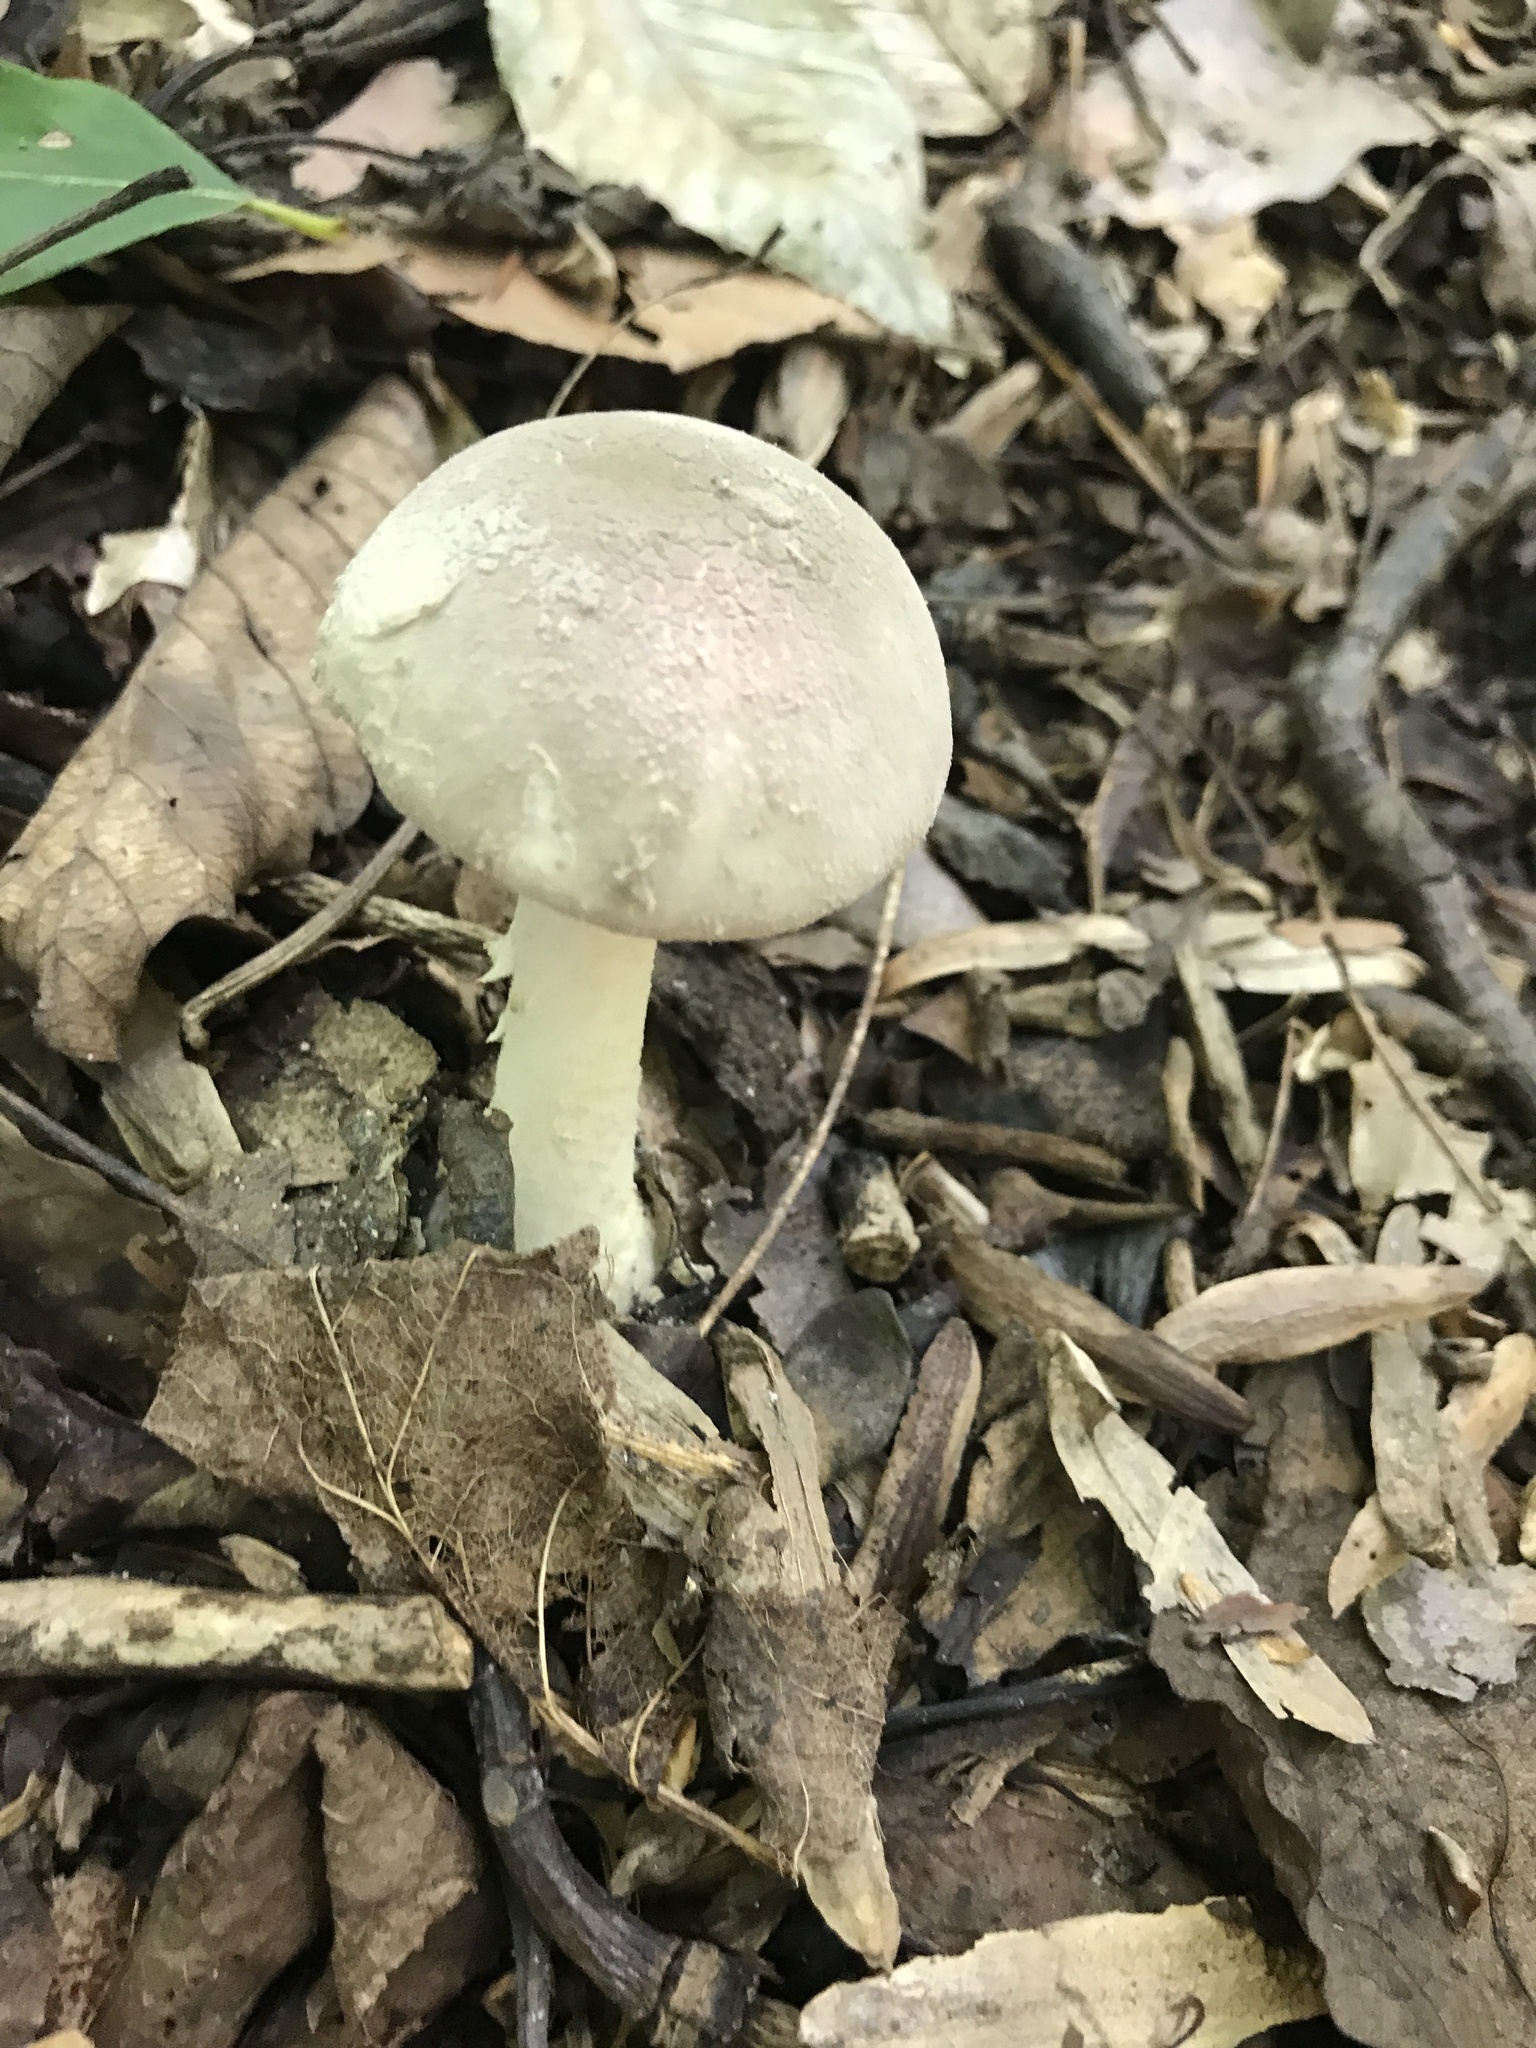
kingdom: Fungi
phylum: Basidiomycota
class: Agaricomycetes
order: Agaricales
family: Amanitaceae
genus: Amanita
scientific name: Amanita farinosa
